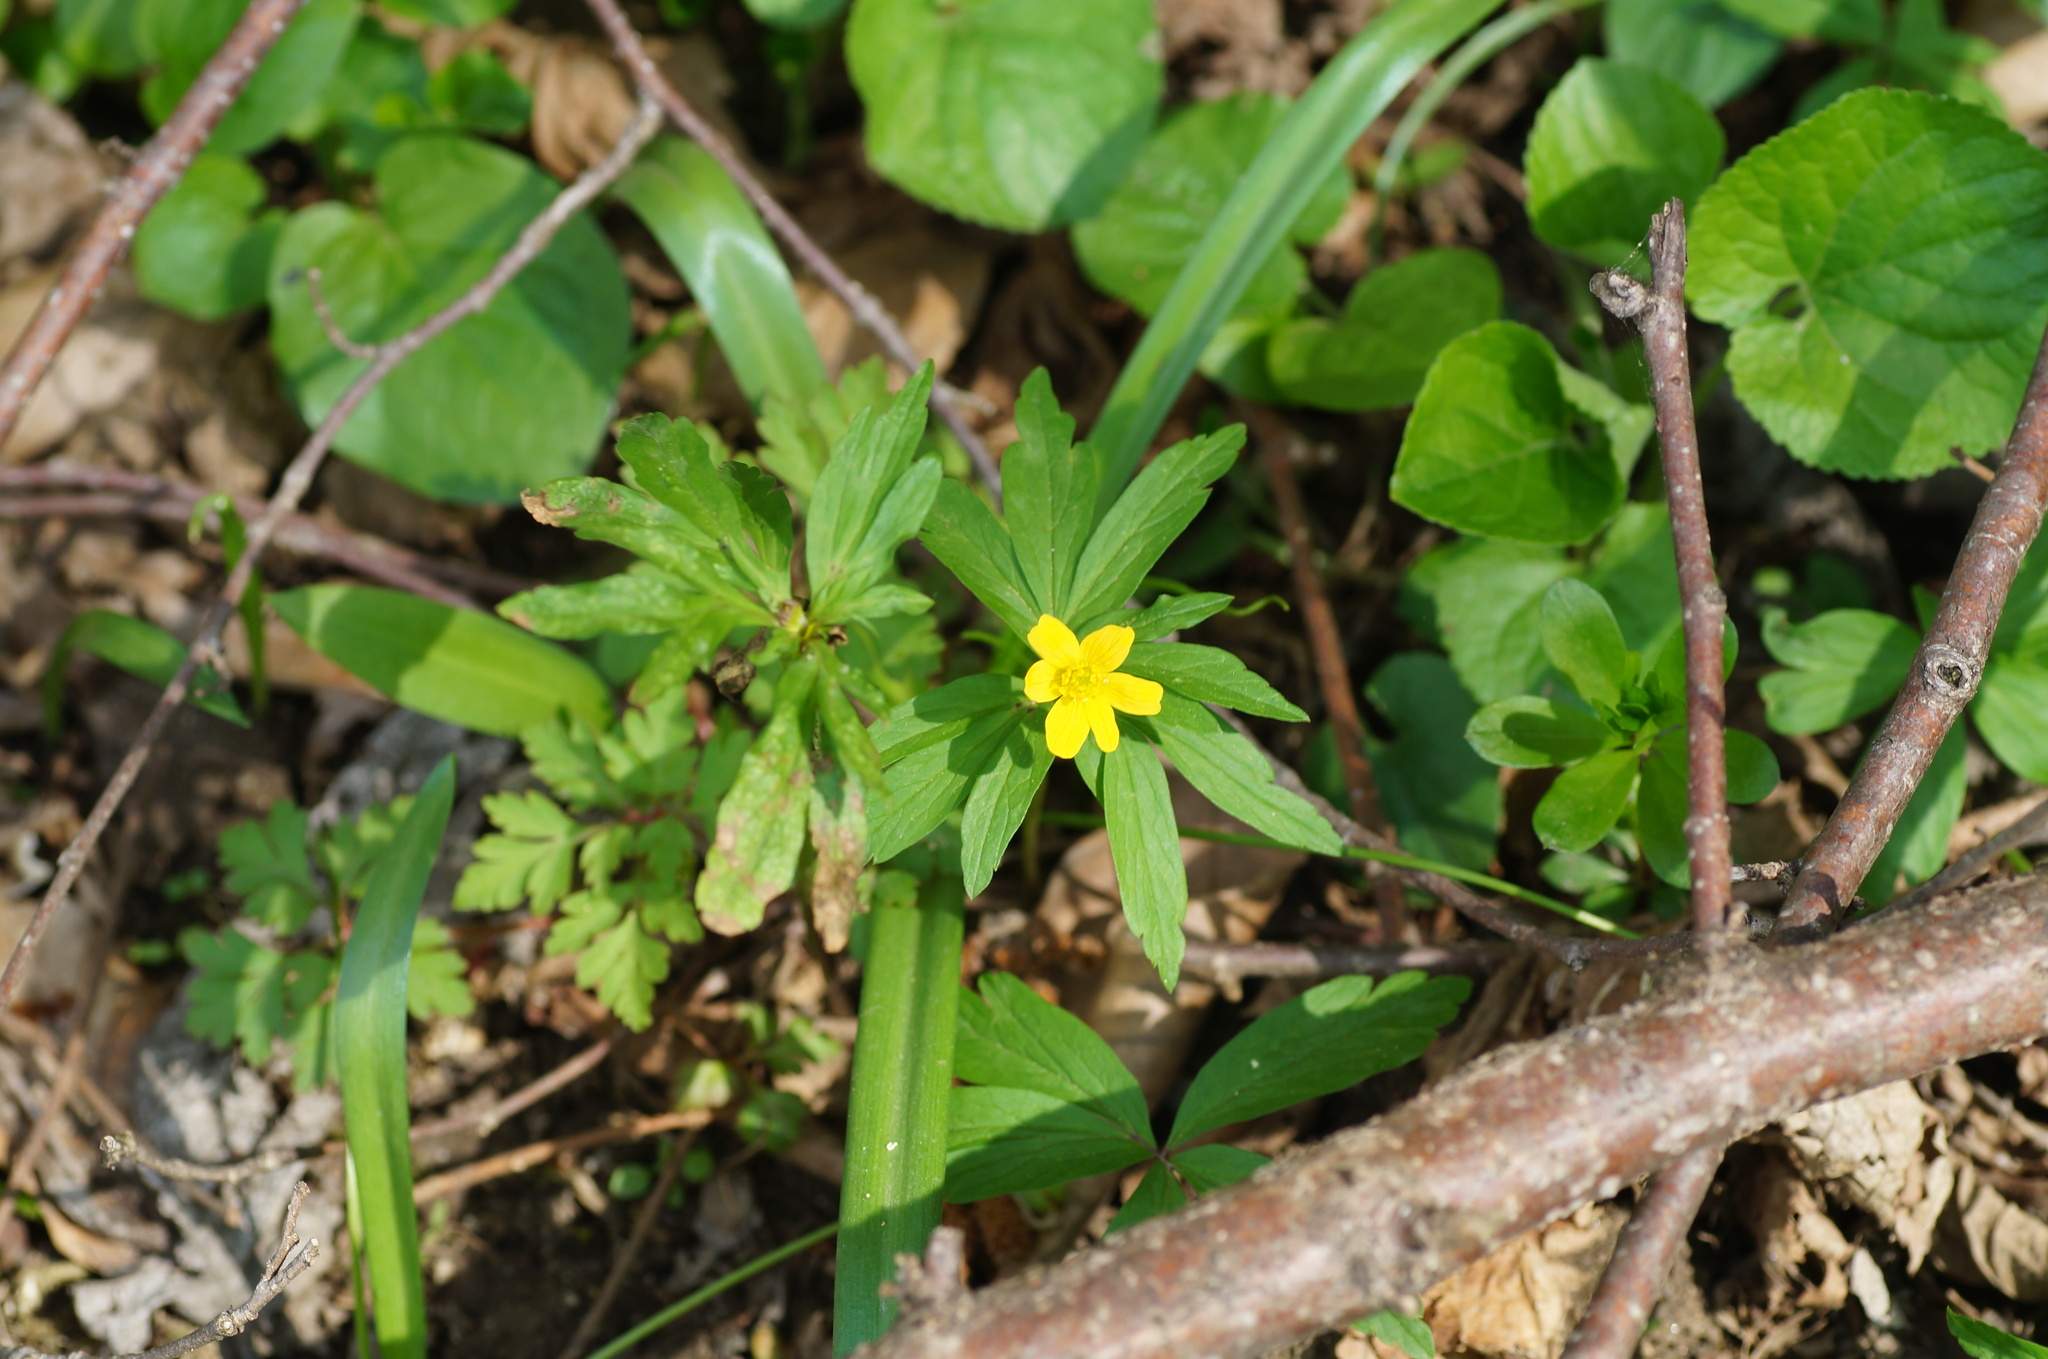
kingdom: Plantae
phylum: Tracheophyta
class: Magnoliopsida
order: Ranunculales
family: Ranunculaceae
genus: Anemone
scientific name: Anemone ranunculoides
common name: Yellow anemone
